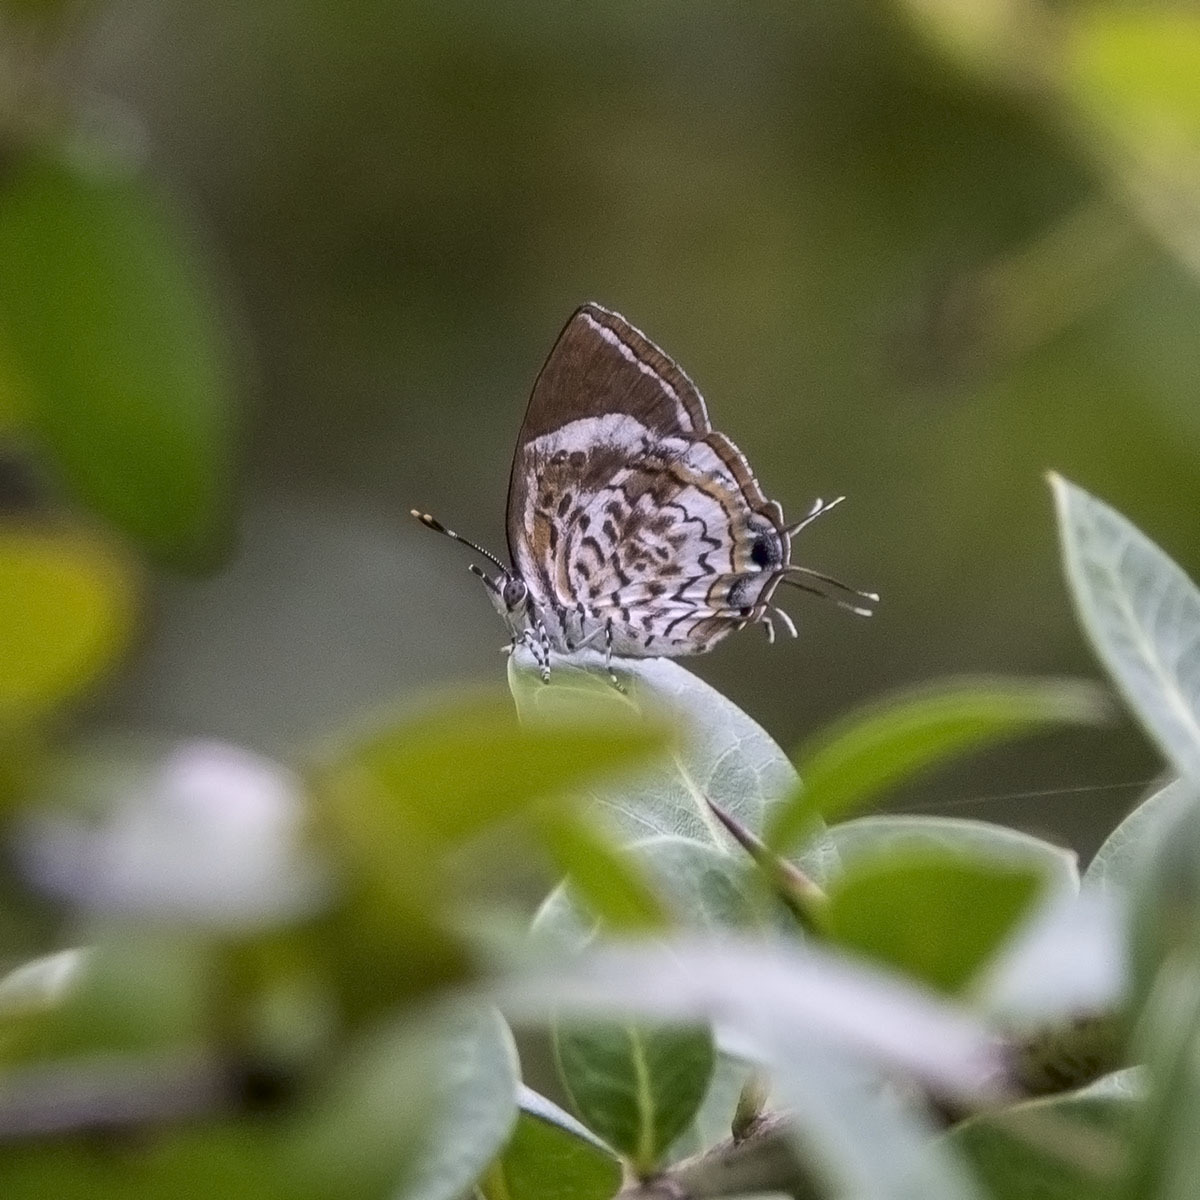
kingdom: Animalia
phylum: Arthropoda
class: Insecta
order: Lepidoptera
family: Lycaenidae
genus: Rathinda
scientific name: Rathinda amor
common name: Monkey puzzle
